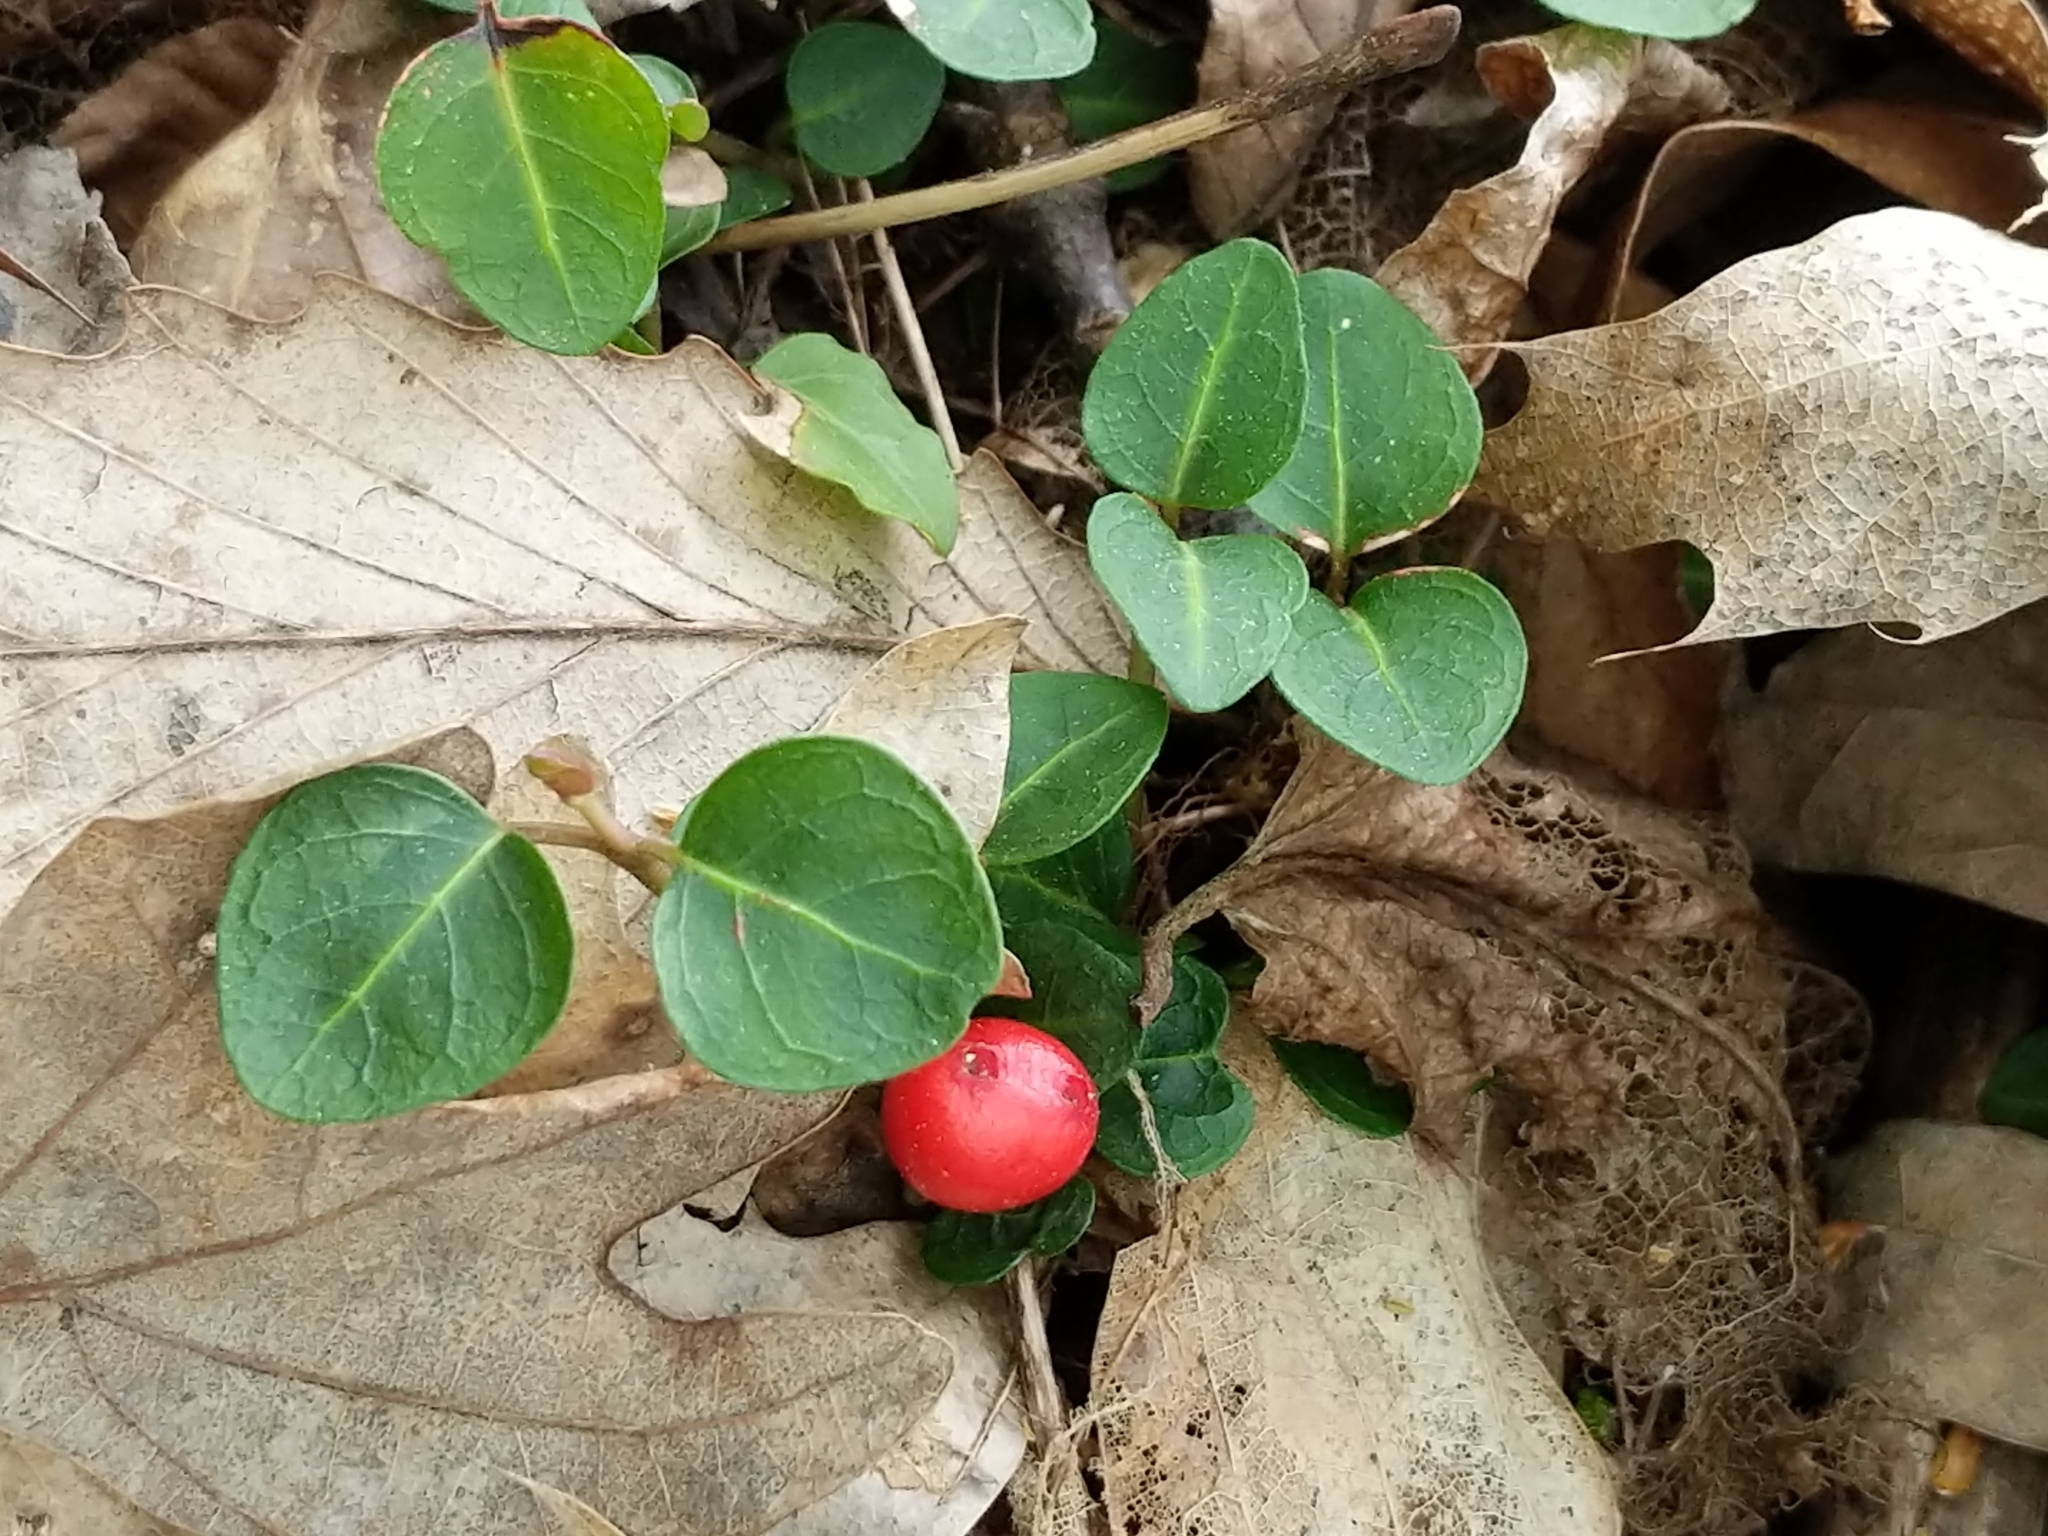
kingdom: Plantae
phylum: Tracheophyta
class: Magnoliopsida
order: Gentianales
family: Rubiaceae
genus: Mitchella
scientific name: Mitchella repens
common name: Partridge-berry
